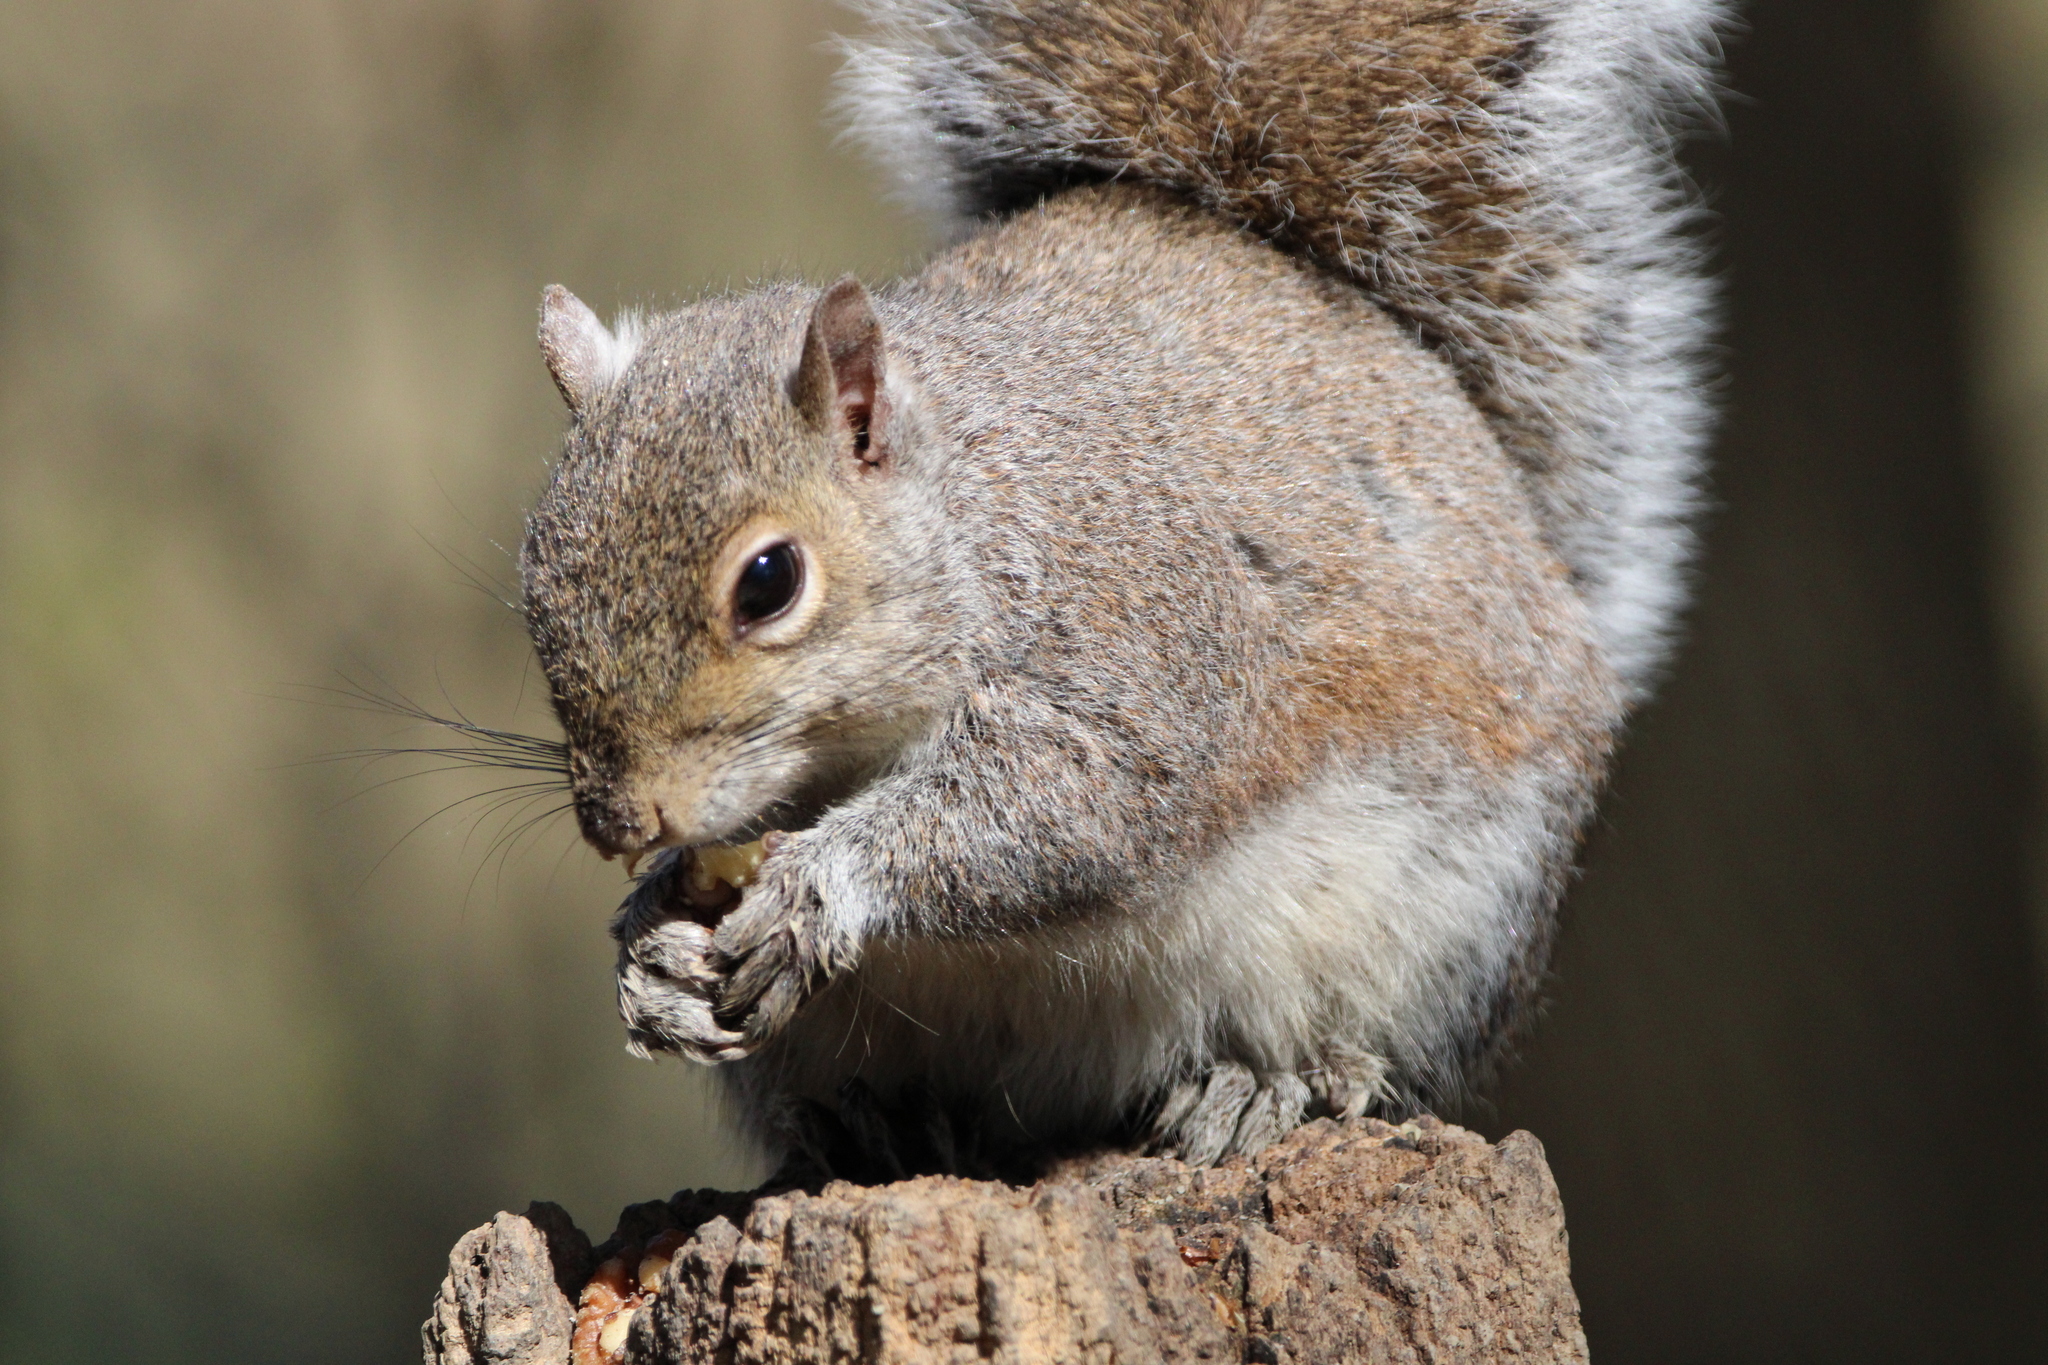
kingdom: Animalia
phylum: Chordata
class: Mammalia
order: Rodentia
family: Sciuridae
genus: Sciurus
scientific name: Sciurus carolinensis
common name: Eastern gray squirrel
